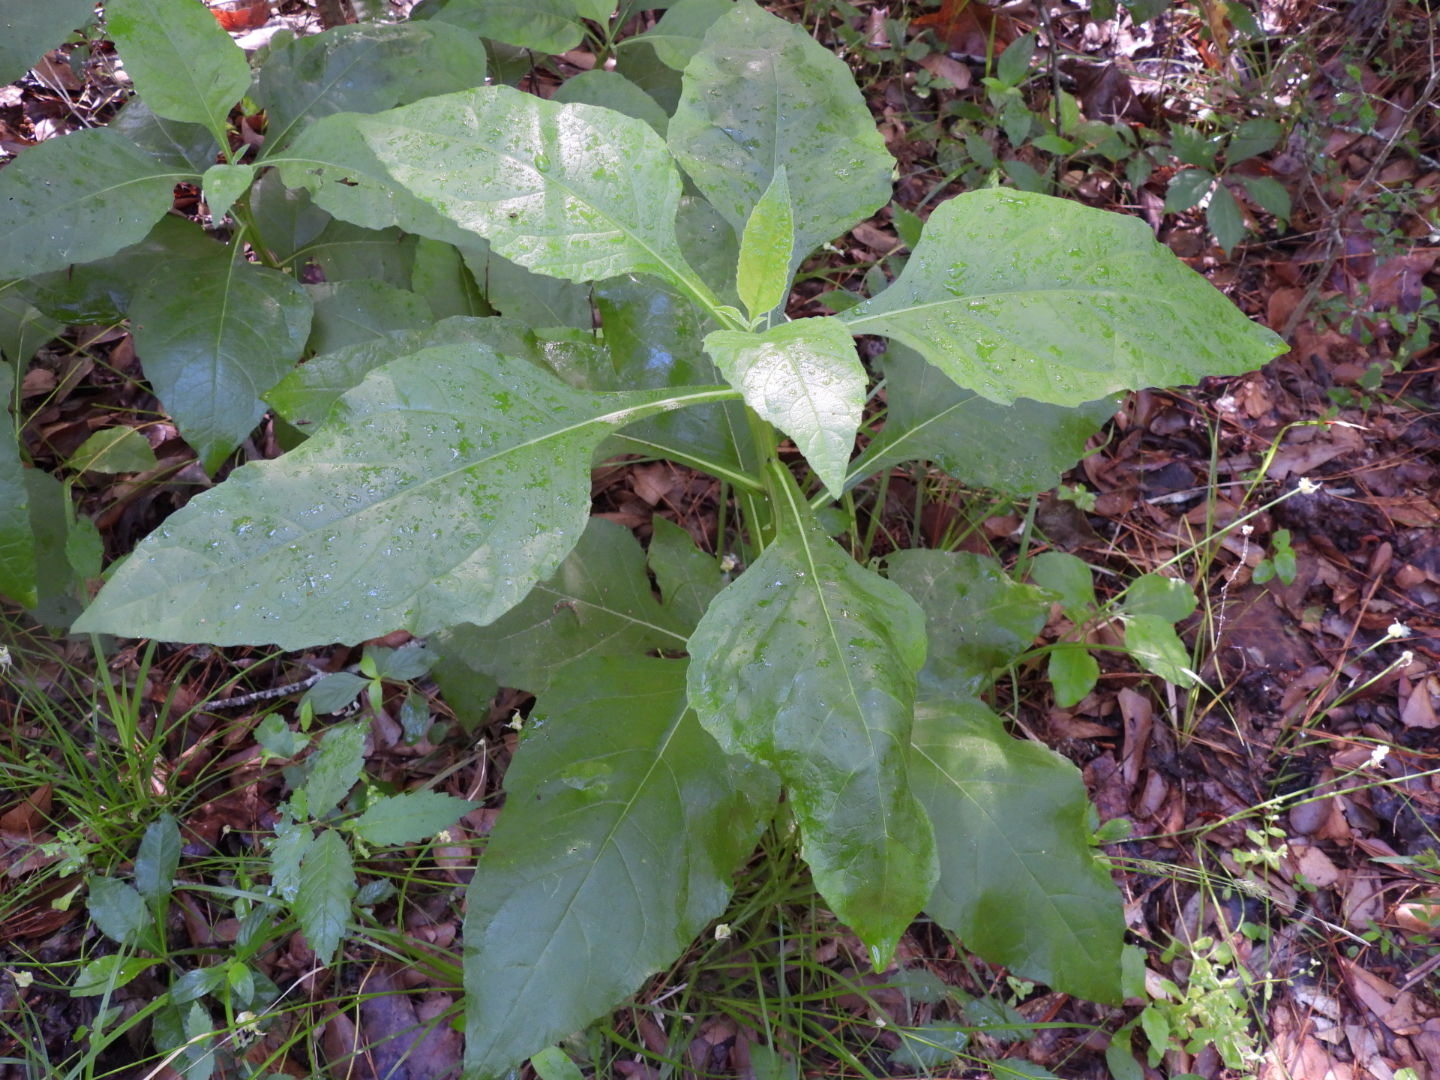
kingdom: Plantae
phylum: Tracheophyta
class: Magnoliopsida
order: Asterales
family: Asteraceae
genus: Verbesina
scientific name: Verbesina virginica
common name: Frostweed
